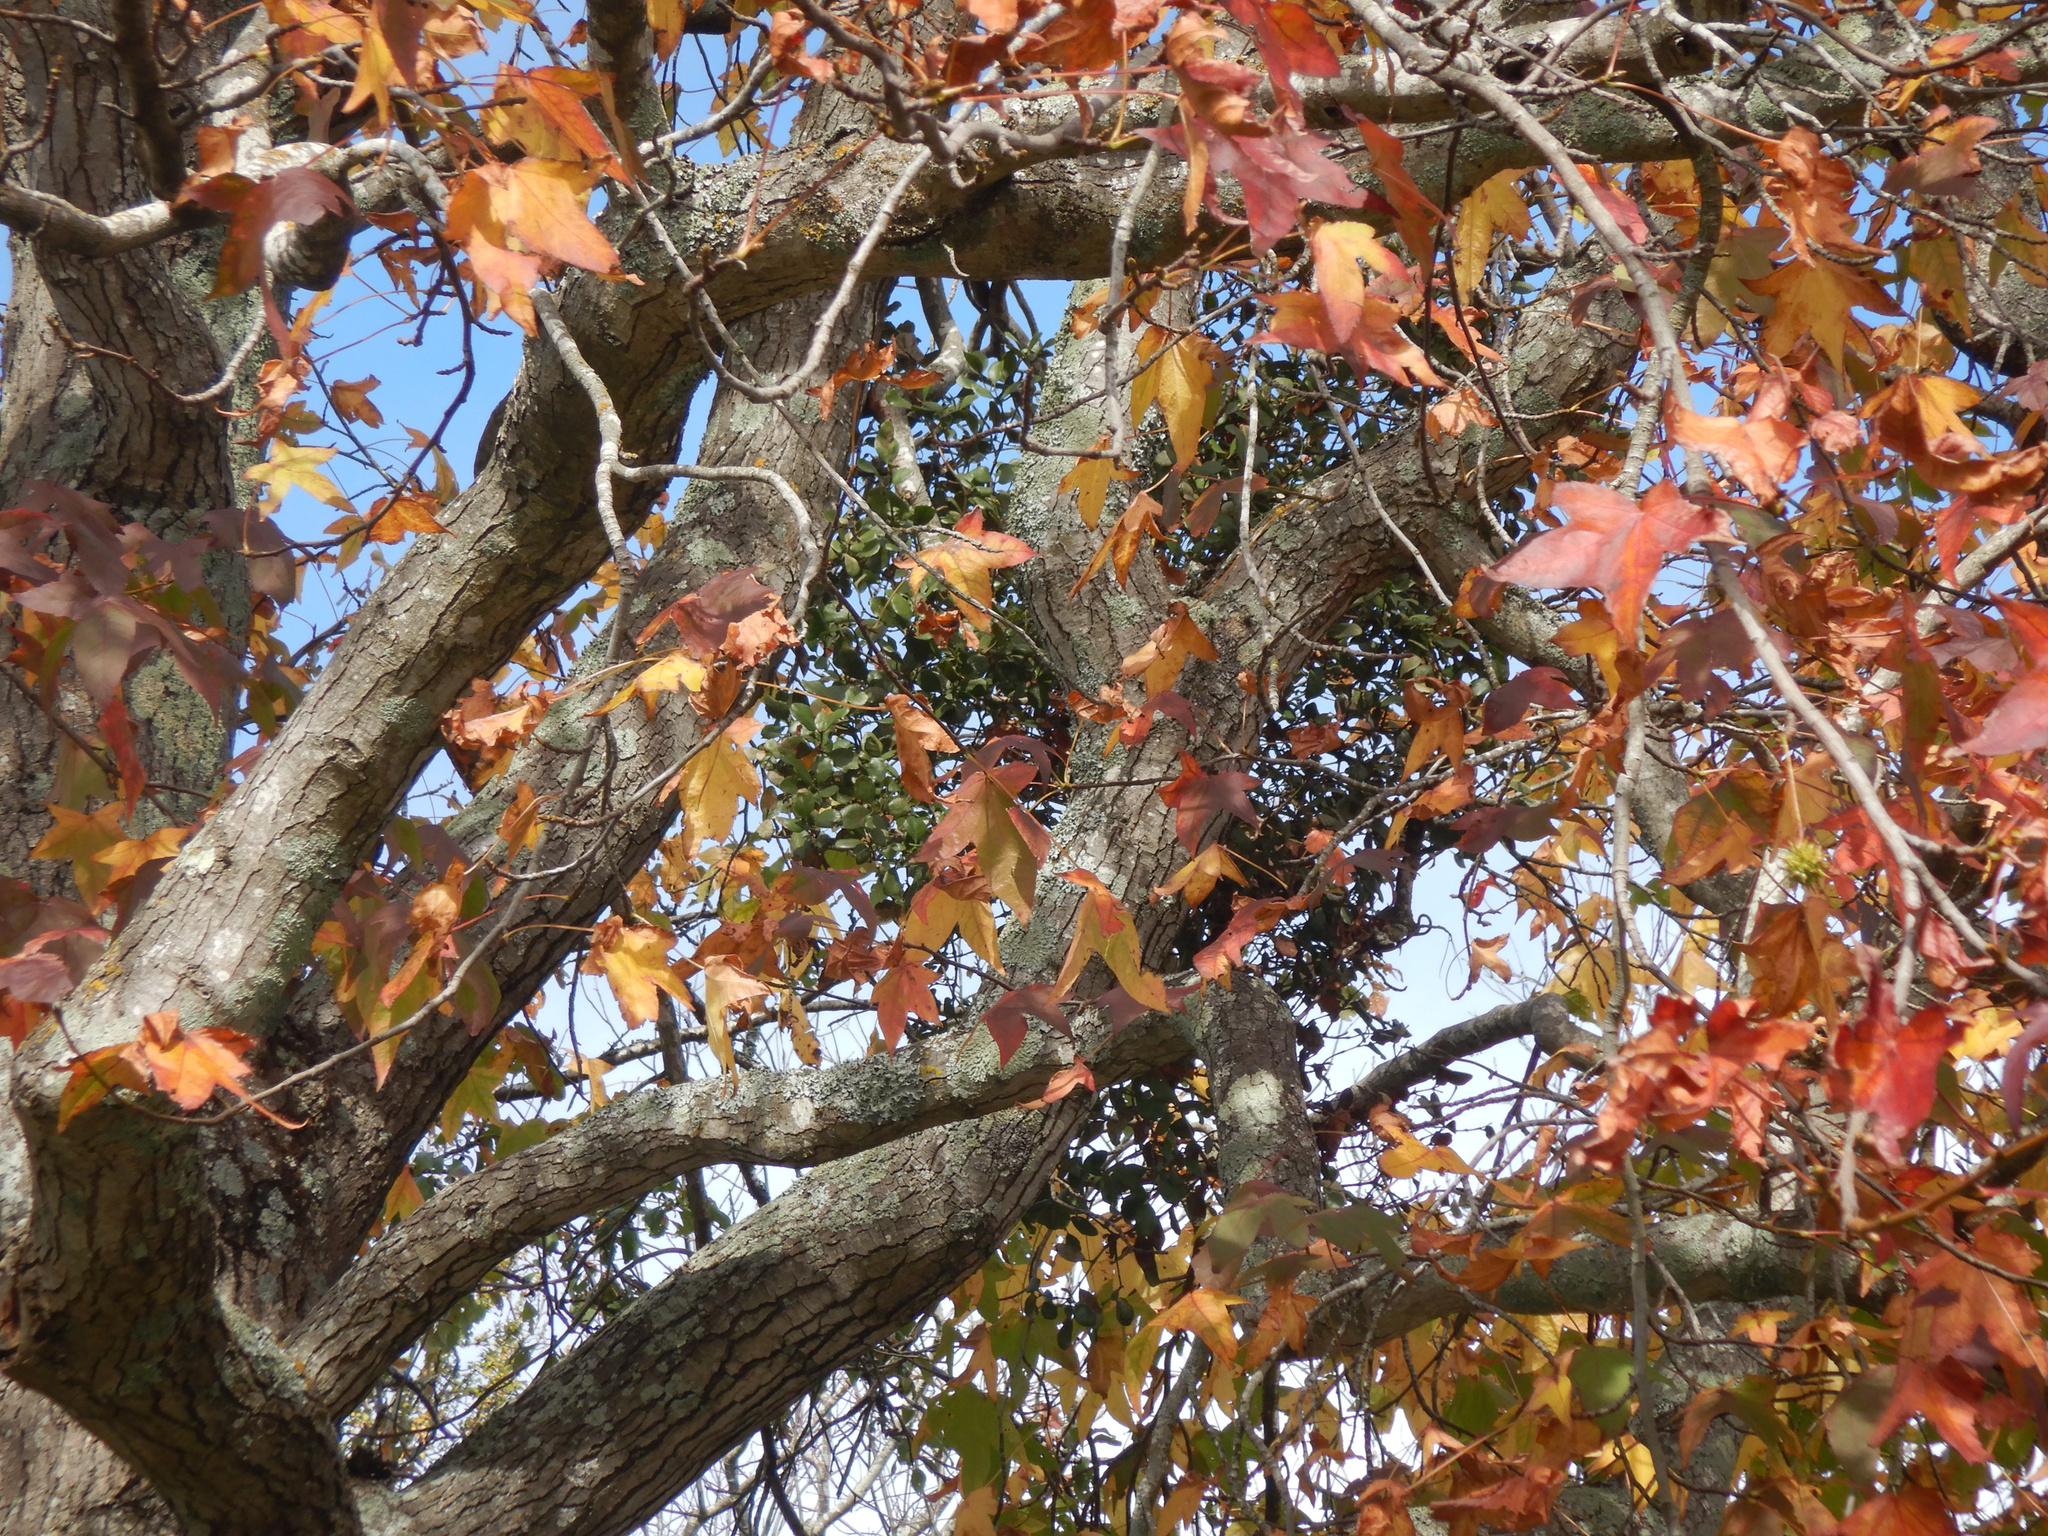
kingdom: Plantae
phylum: Tracheophyta
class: Magnoliopsida
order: Santalales
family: Loranthaceae
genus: Ileostylus
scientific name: Ileostylus micranthus
